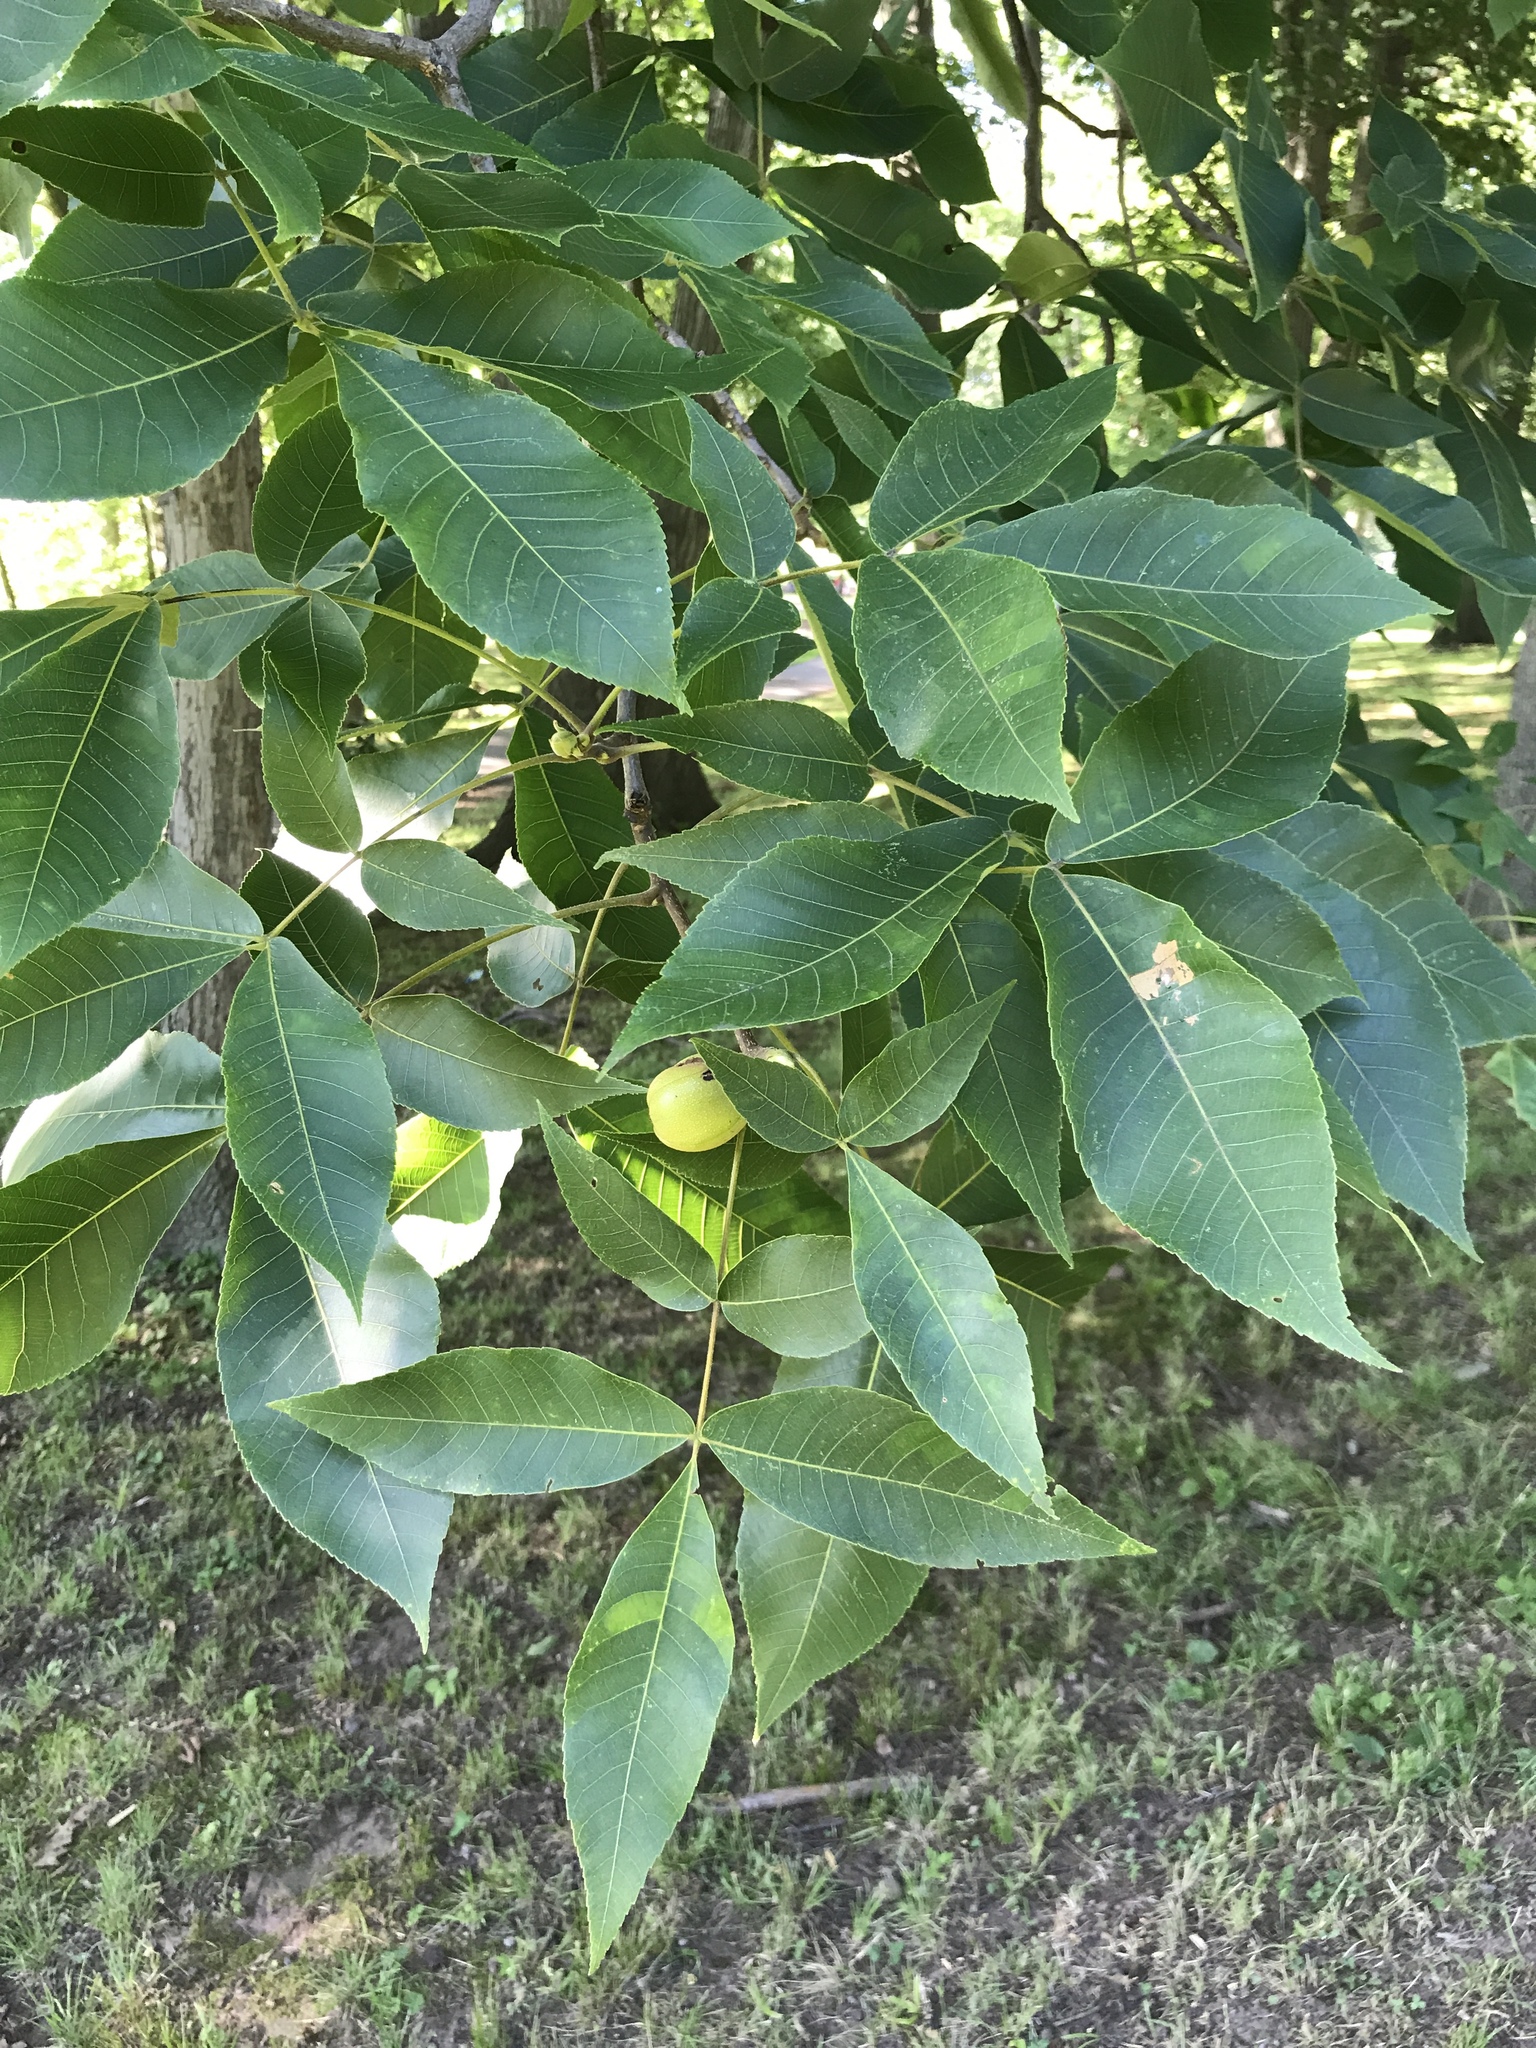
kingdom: Plantae
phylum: Tracheophyta
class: Magnoliopsida
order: Fagales
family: Juglandaceae
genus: Carya
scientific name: Carya ovata
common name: Shagbark hickory
